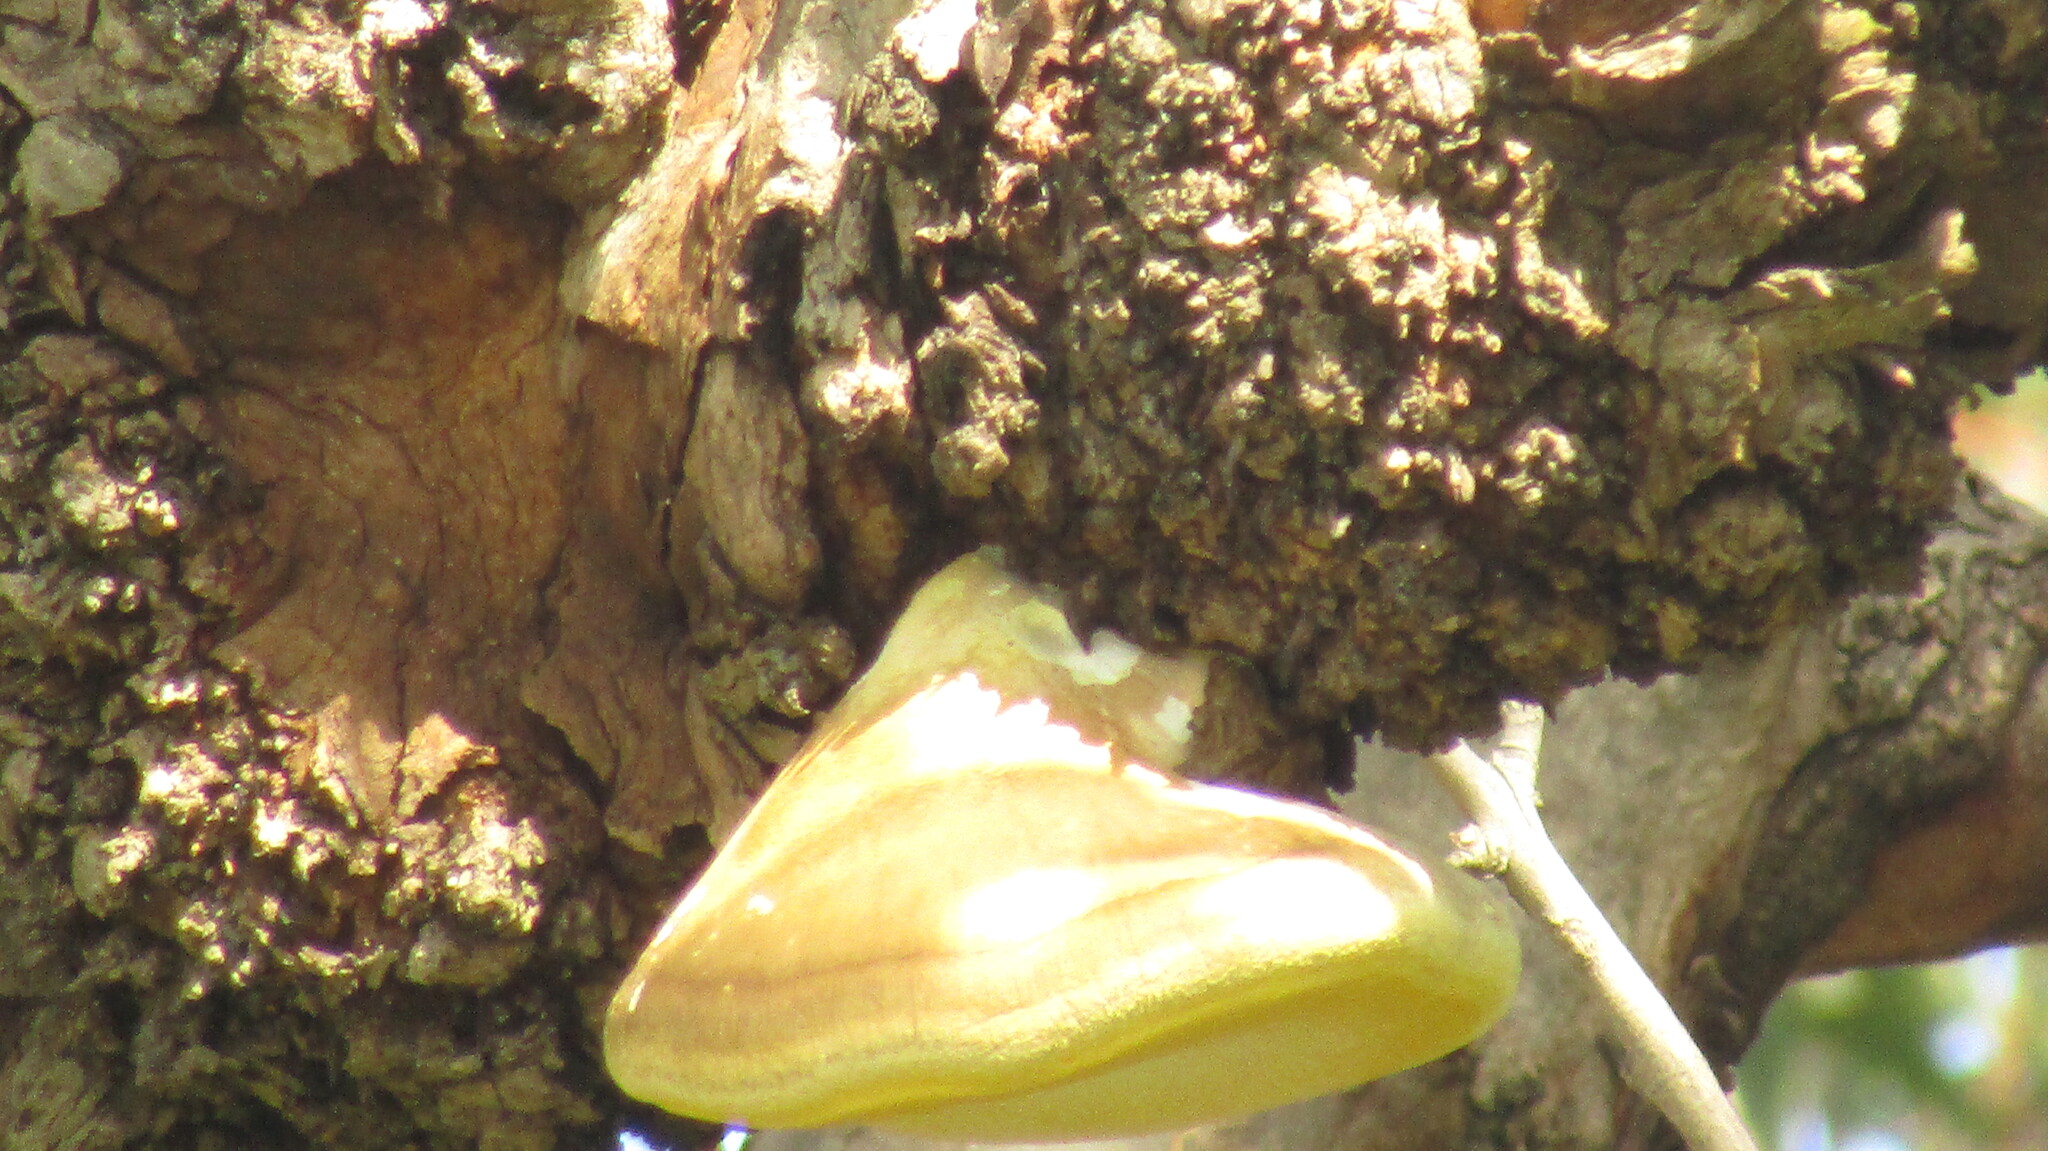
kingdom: Fungi
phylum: Basidiomycota
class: Agaricomycetes
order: Polyporales
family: Laetiporaceae
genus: Laetiporus
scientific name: Laetiporus portentosus
